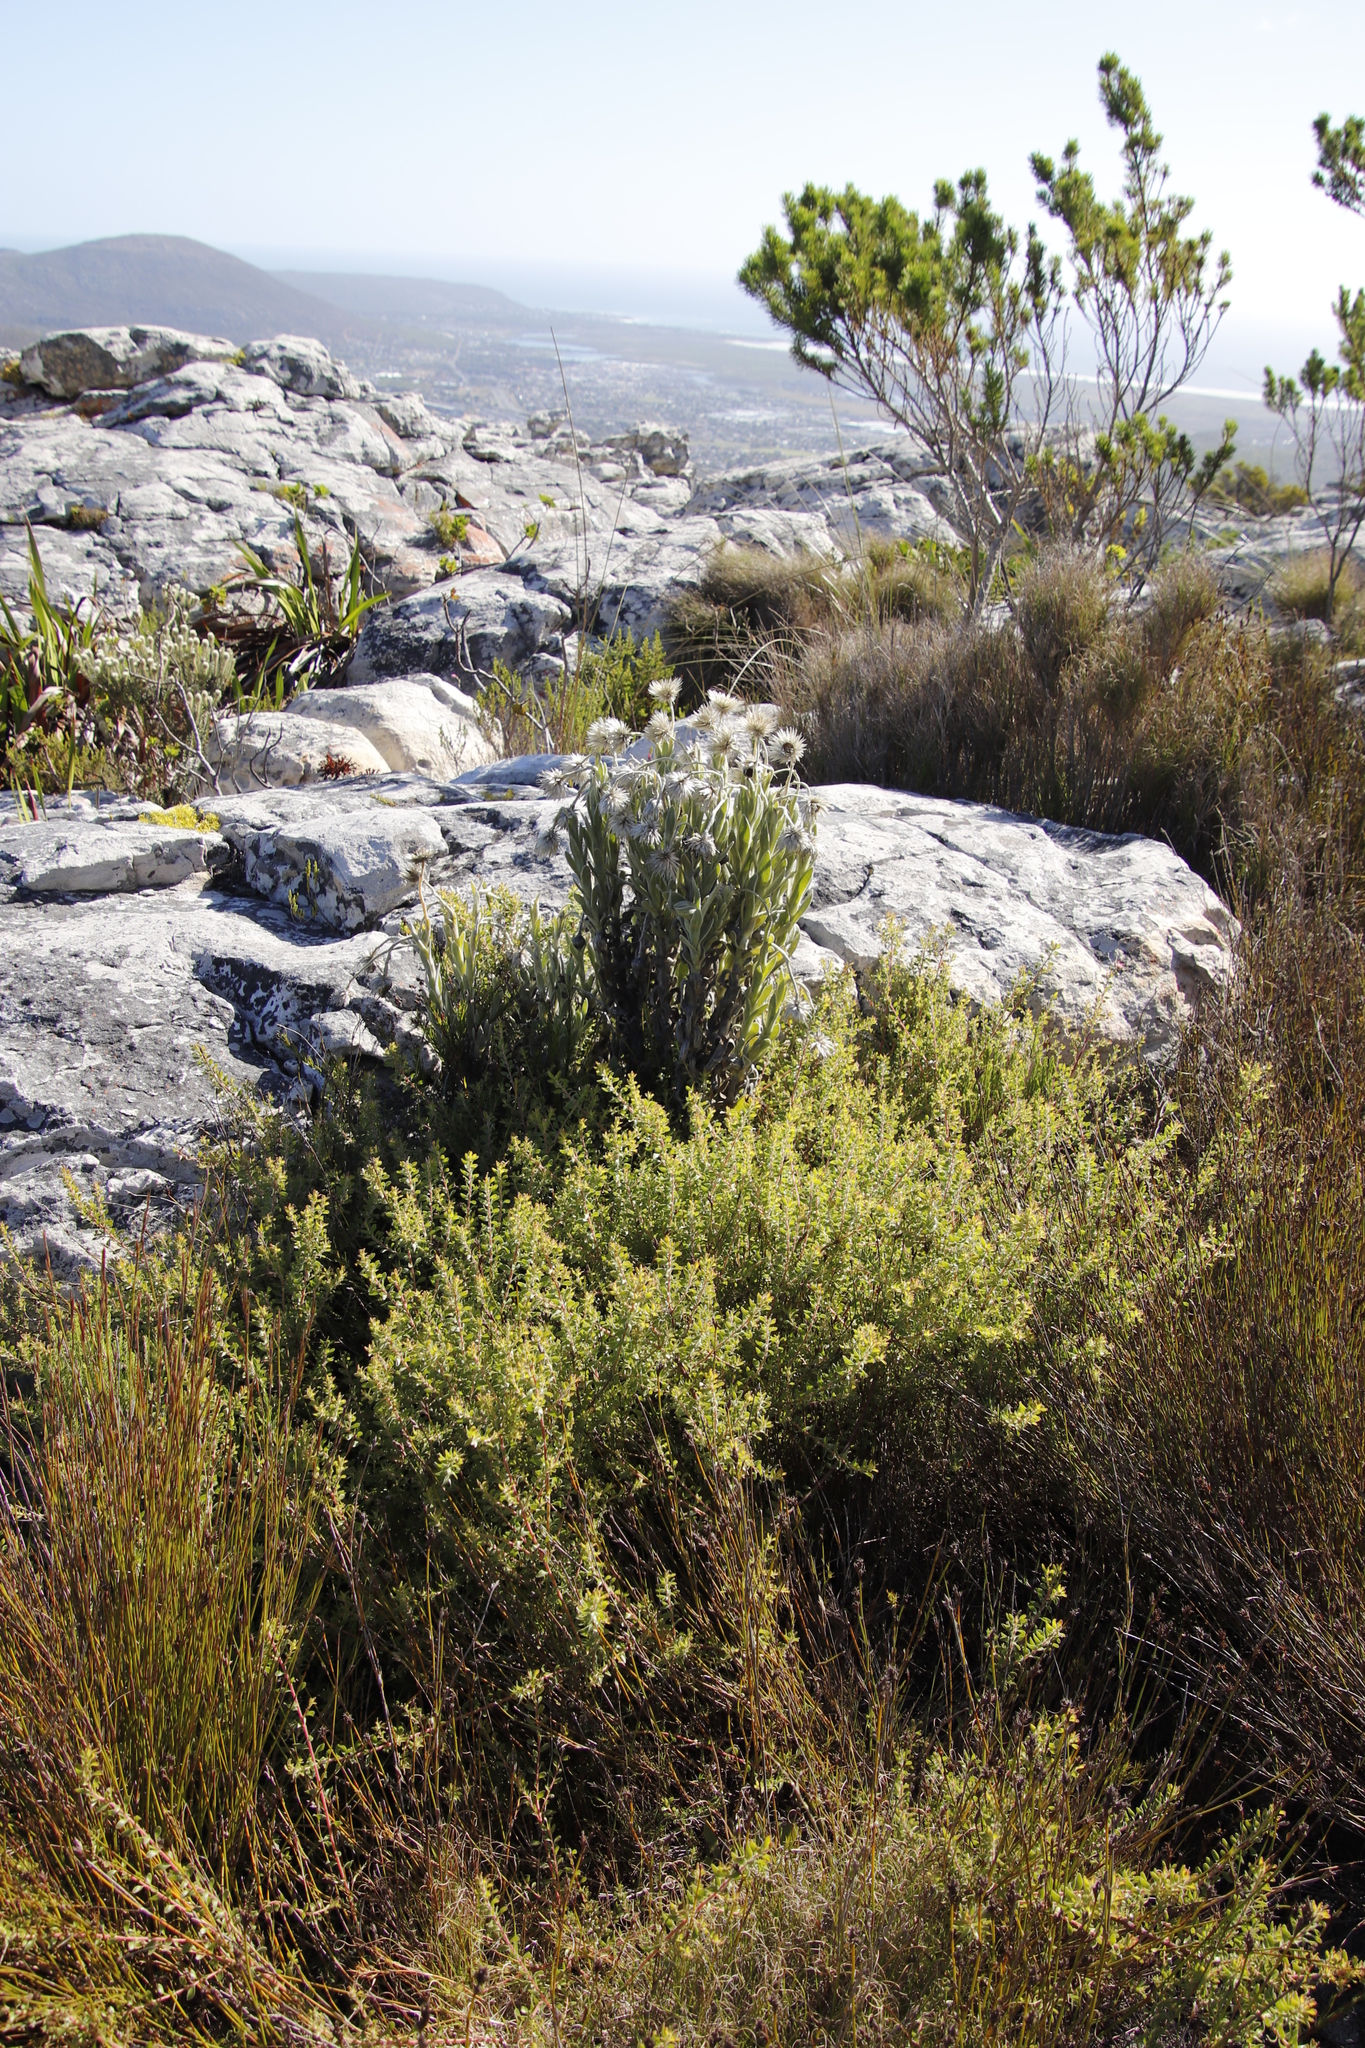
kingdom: Plantae
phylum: Tracheophyta
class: Magnoliopsida
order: Asterales
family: Asteraceae
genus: Syncarpha
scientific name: Syncarpha vestita
